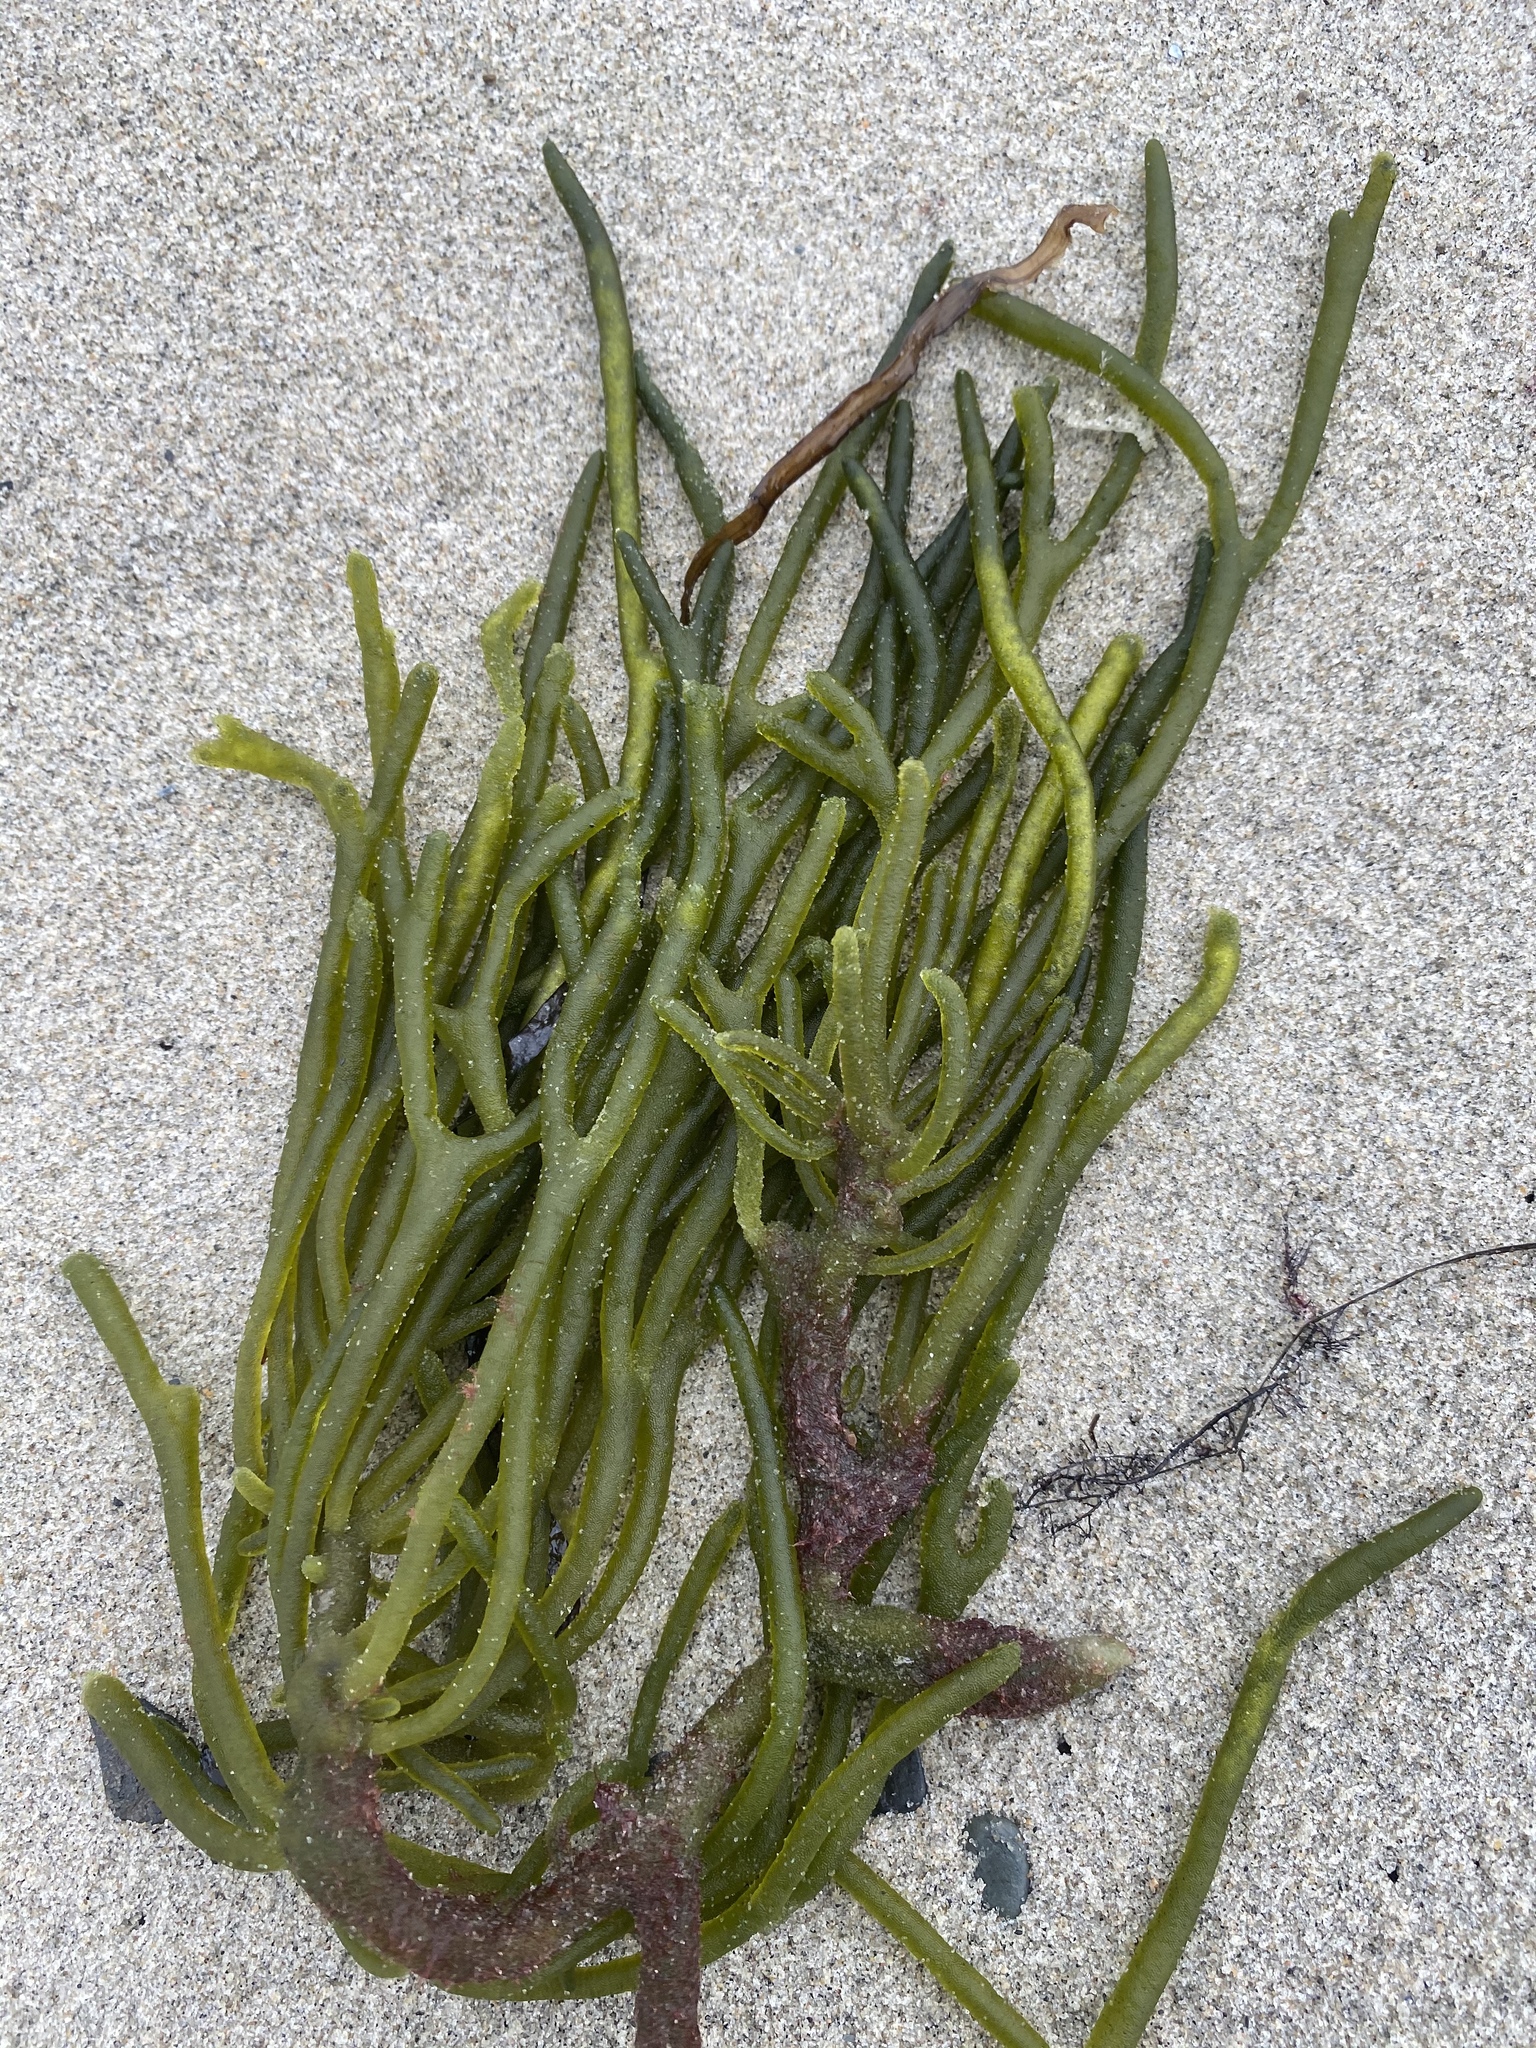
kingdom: Plantae
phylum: Chlorophyta
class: Ulvophyceae
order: Bryopsidales
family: Codiaceae
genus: Codium
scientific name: Codium fragile
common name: Dead man's fingers
